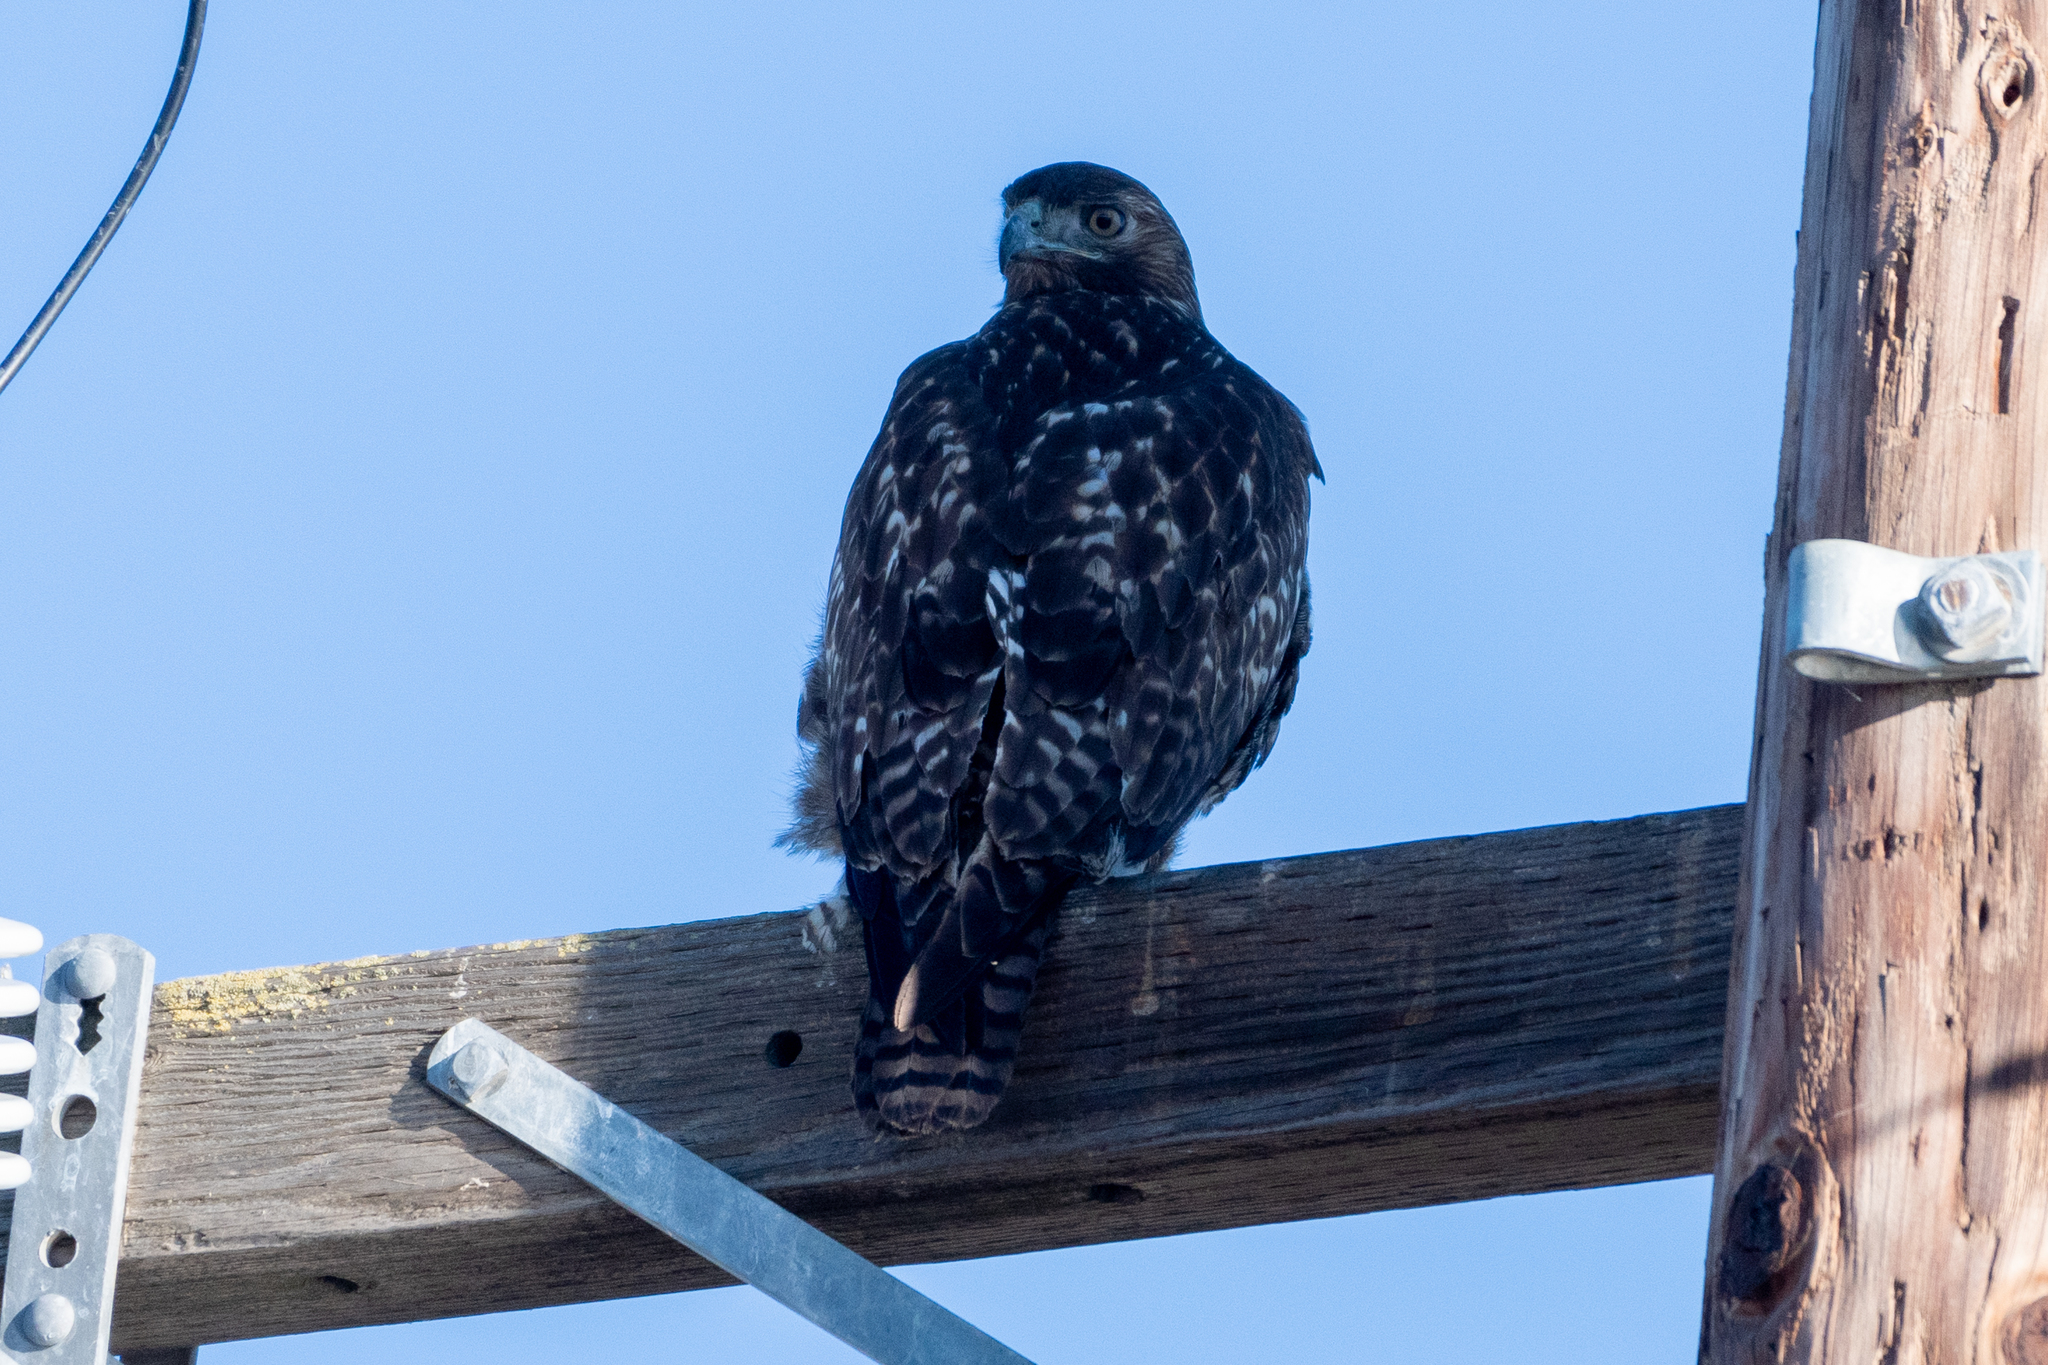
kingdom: Animalia
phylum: Chordata
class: Aves
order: Accipitriformes
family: Accipitridae
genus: Buteo
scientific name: Buteo jamaicensis
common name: Red-tailed hawk
